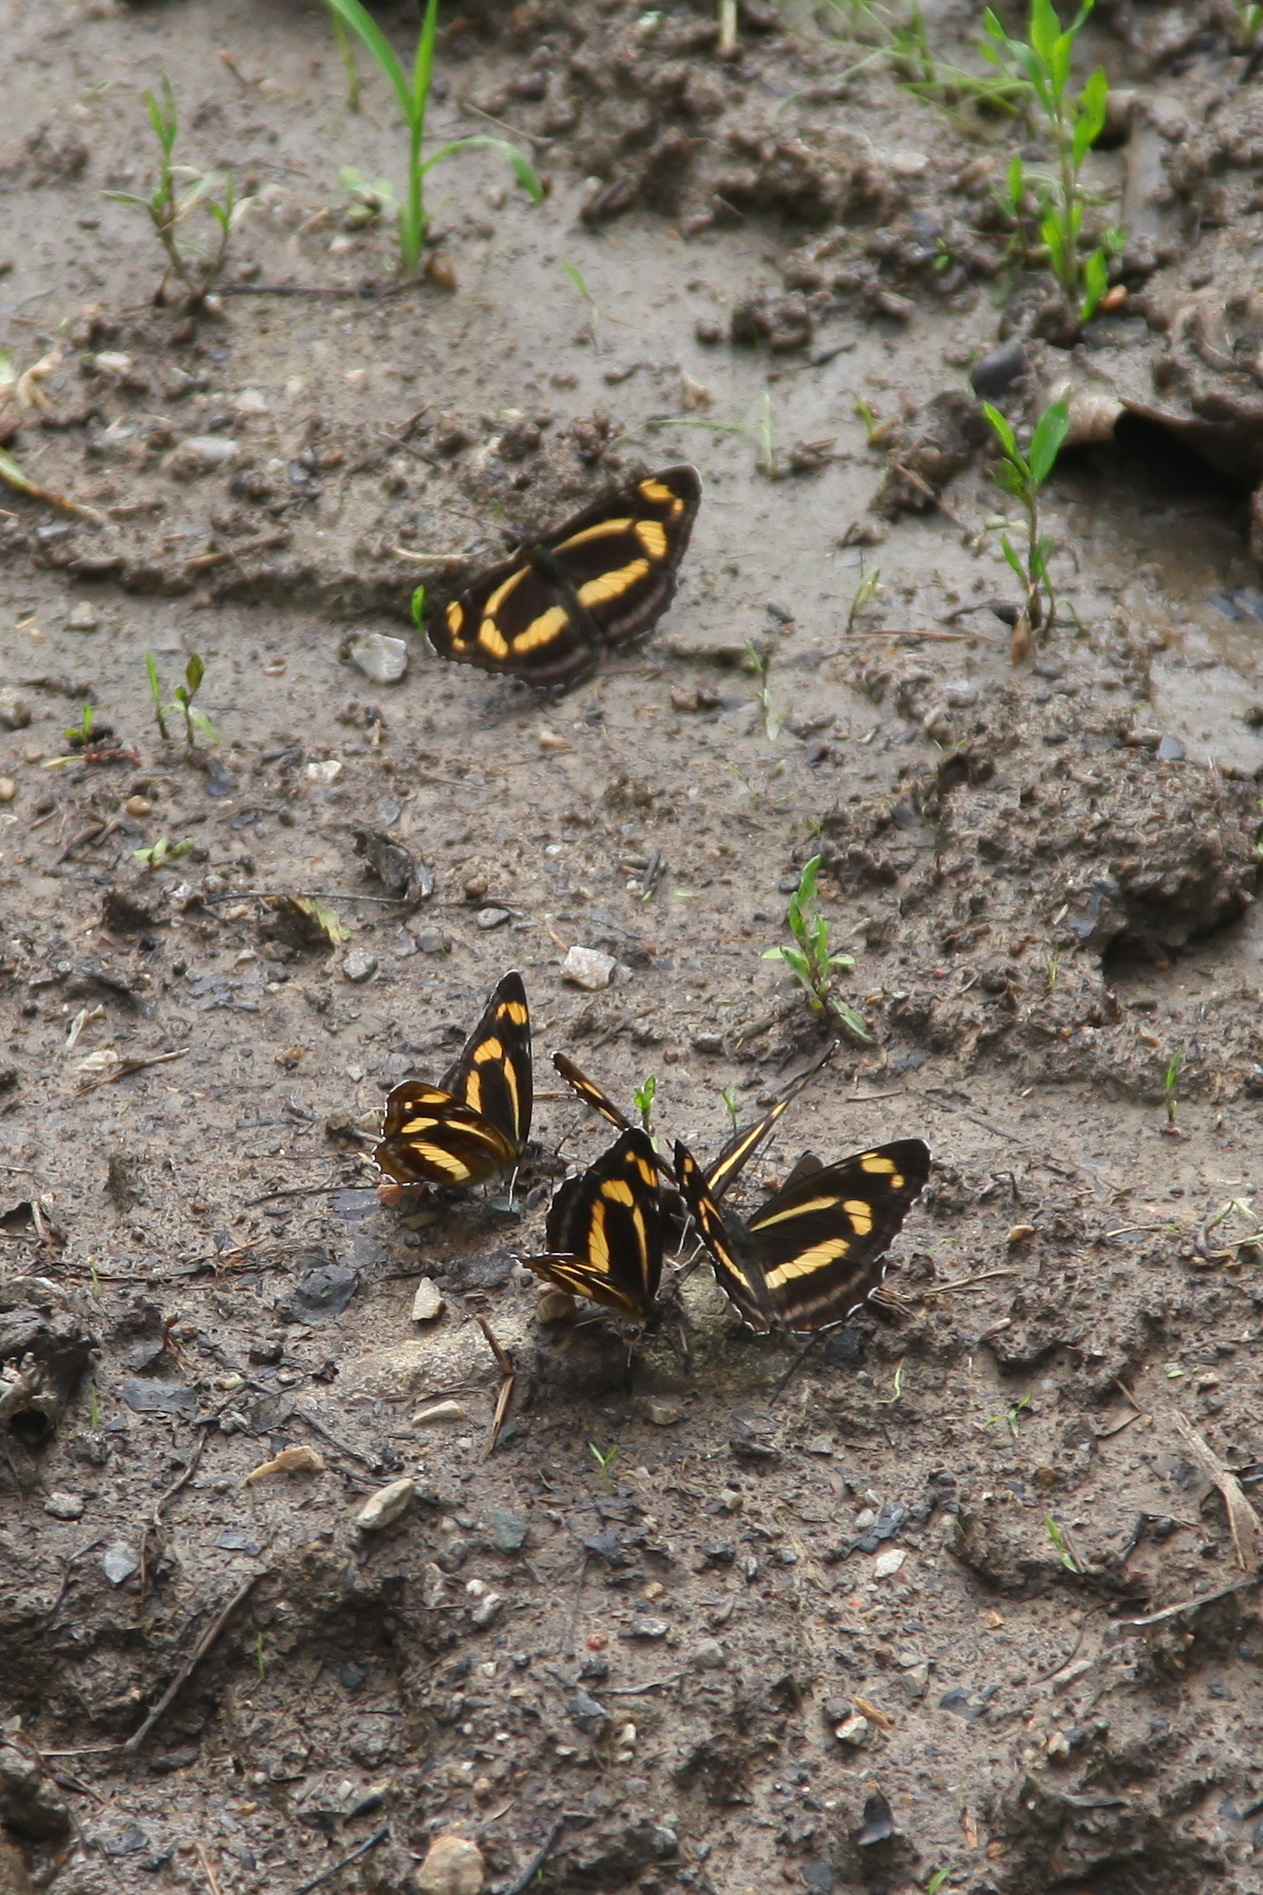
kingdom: Animalia
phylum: Arthropoda
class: Insecta
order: Lepidoptera
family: Nymphalidae
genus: Neptis
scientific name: Neptis thisbe
